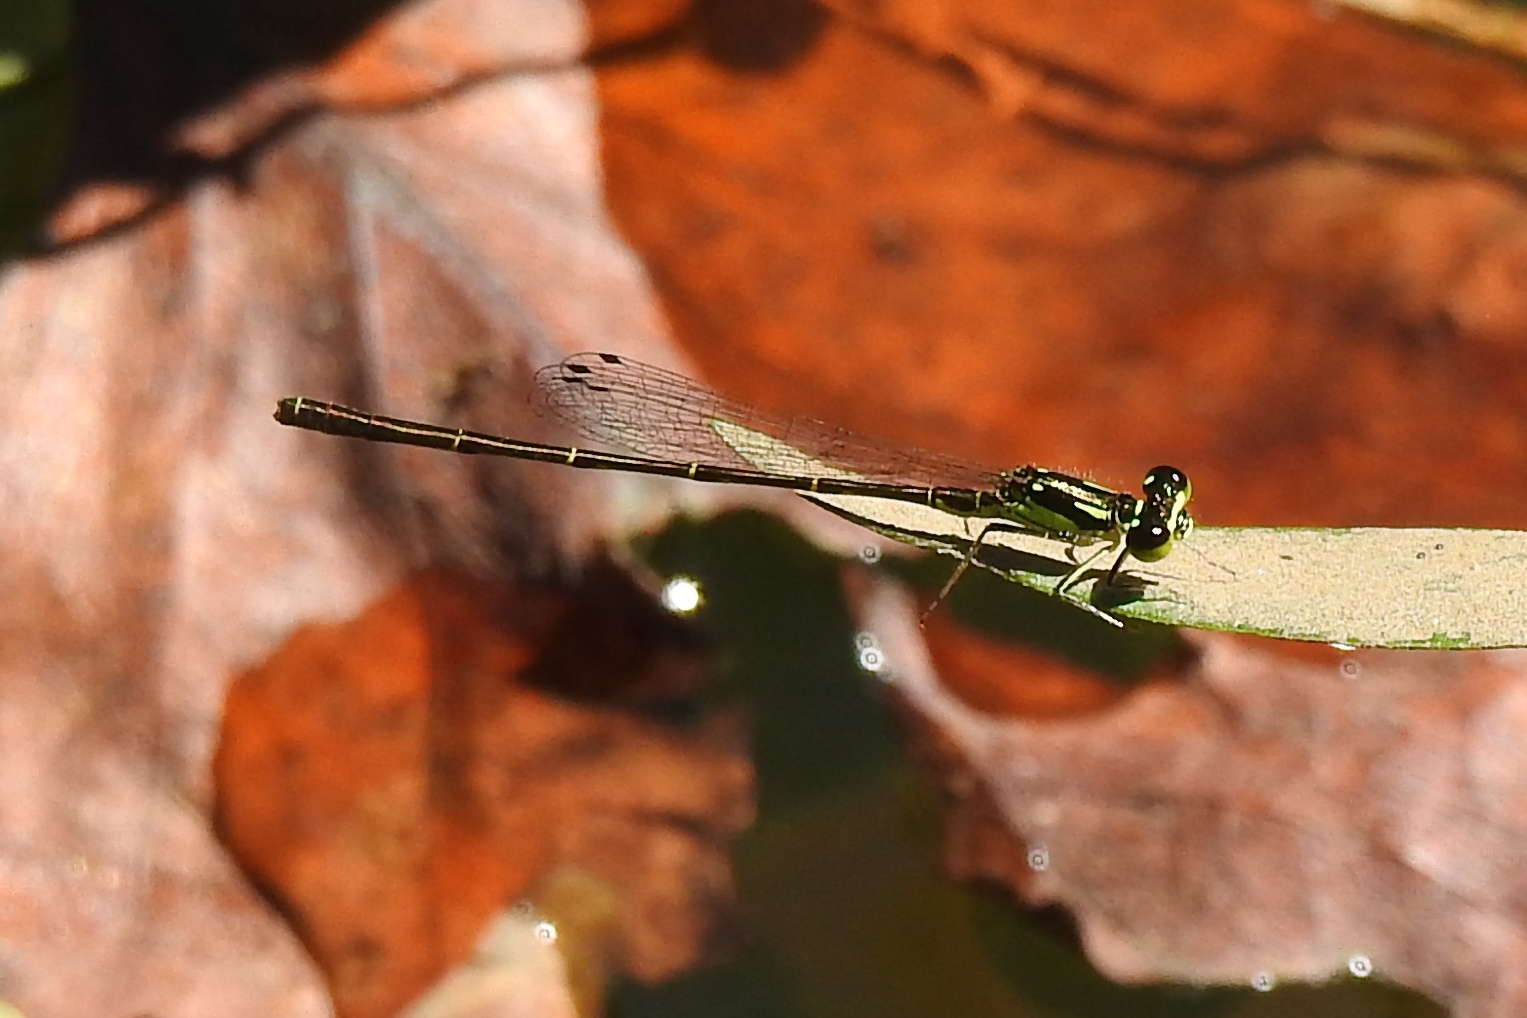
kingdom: Animalia
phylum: Arthropoda
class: Insecta
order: Odonata
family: Coenagrionidae
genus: Ischnura
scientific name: Ischnura posita
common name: Fragile forktail
